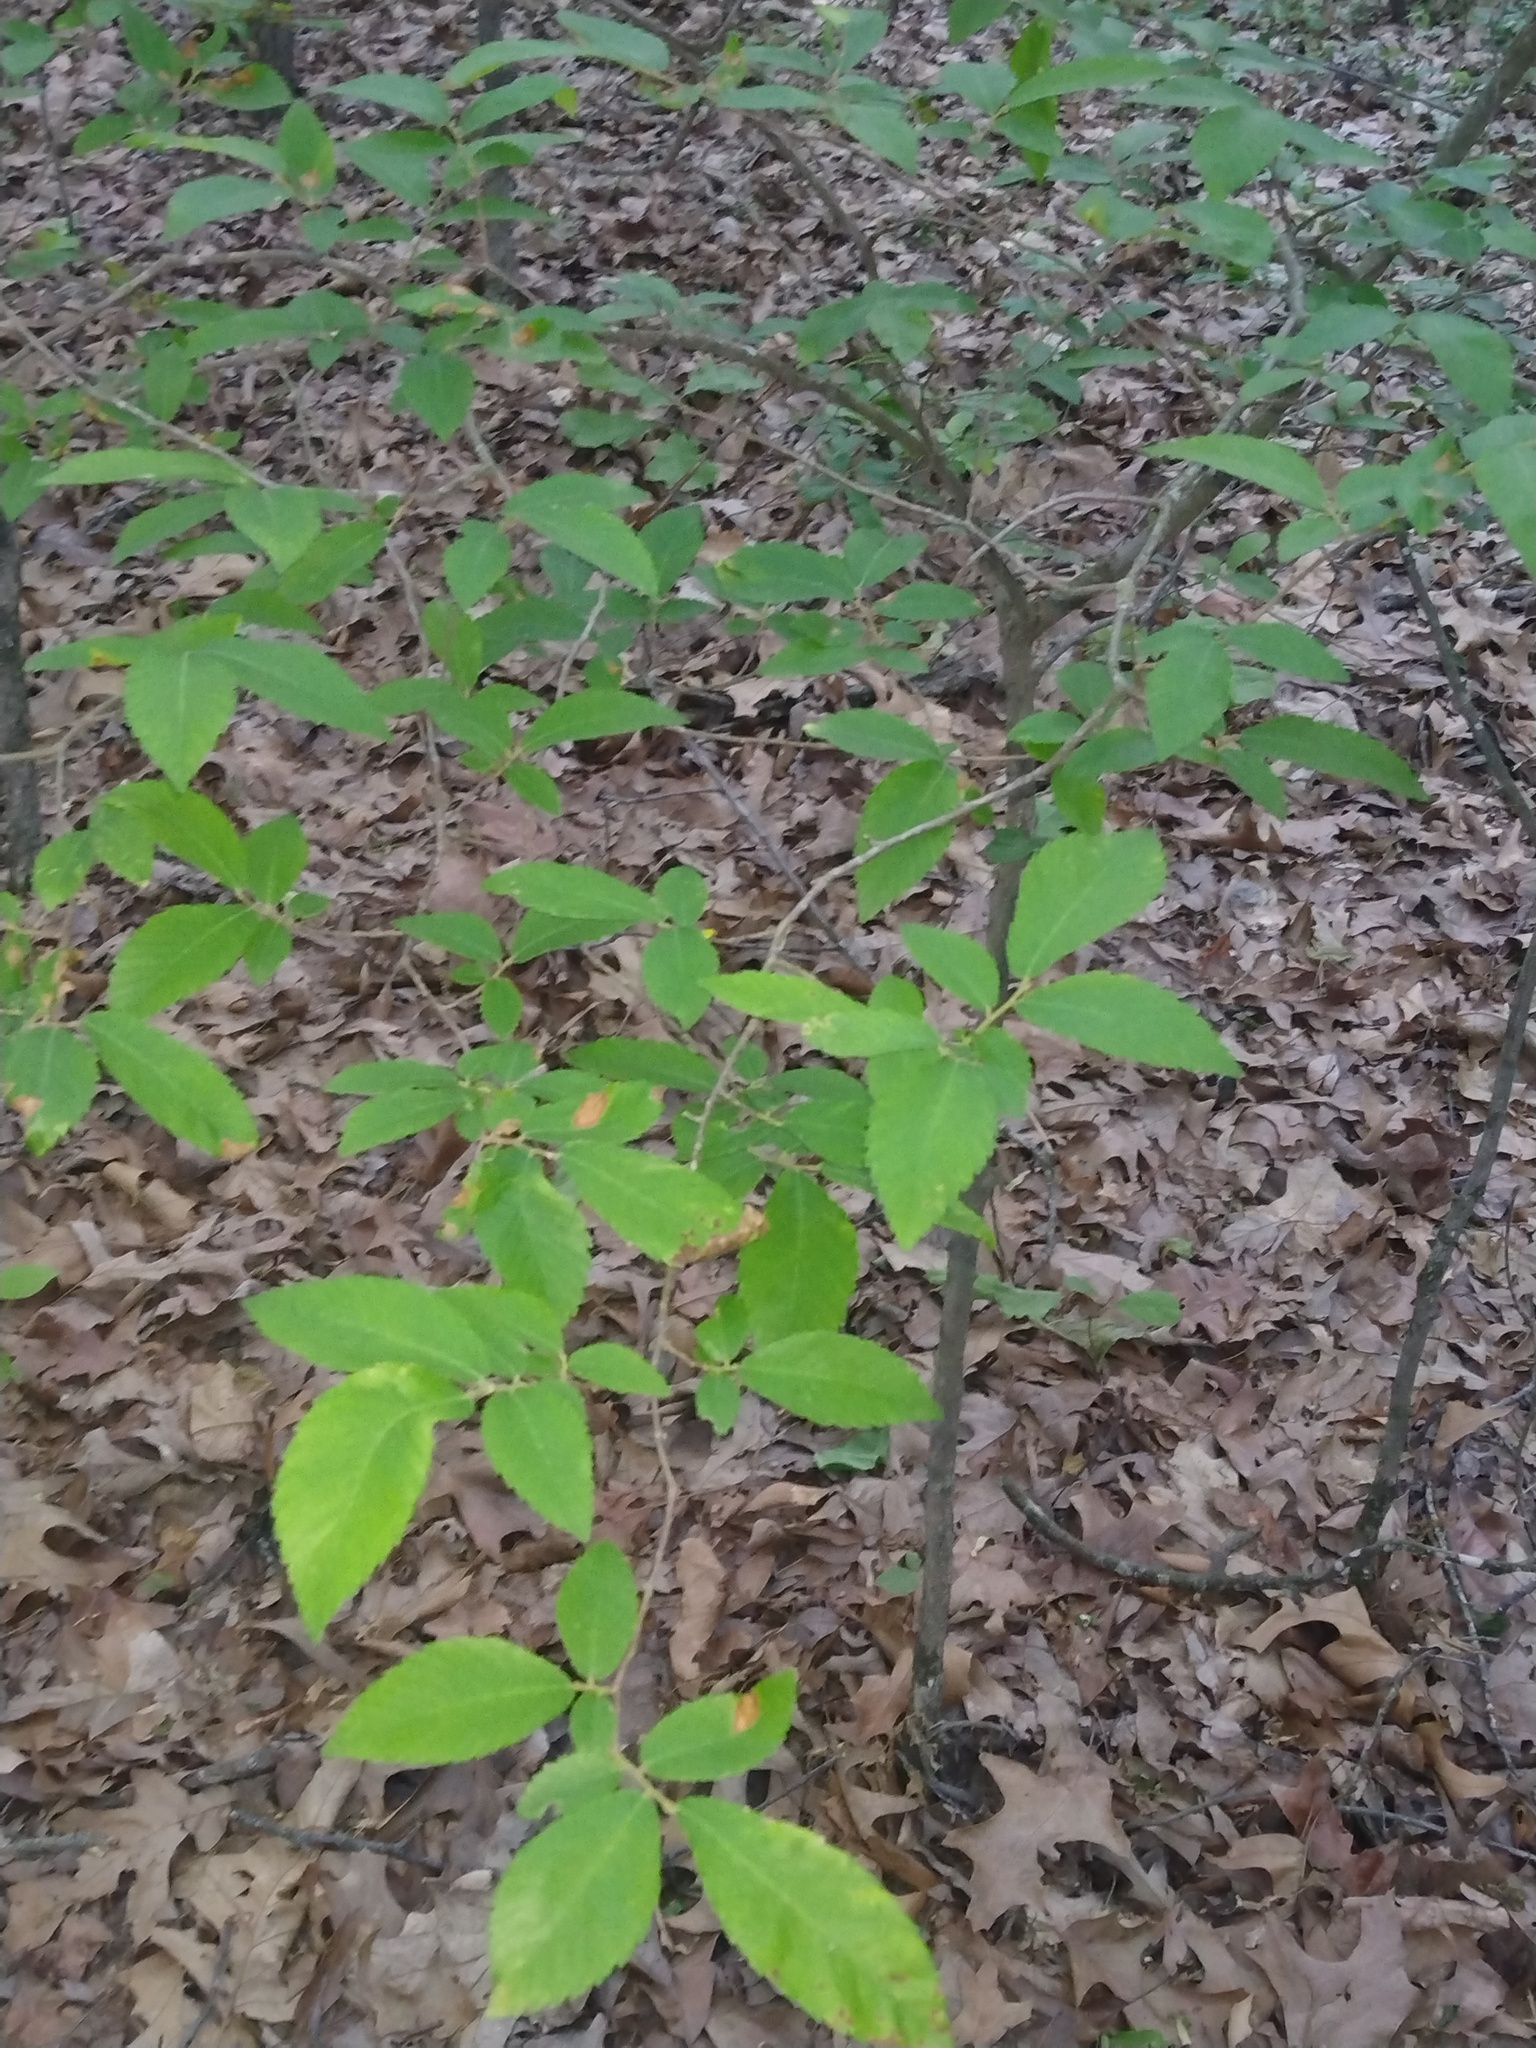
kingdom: Plantae
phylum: Tracheophyta
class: Magnoliopsida
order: Rosales
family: Ulmaceae
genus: Ulmus
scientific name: Ulmus alata
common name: Winged elm
